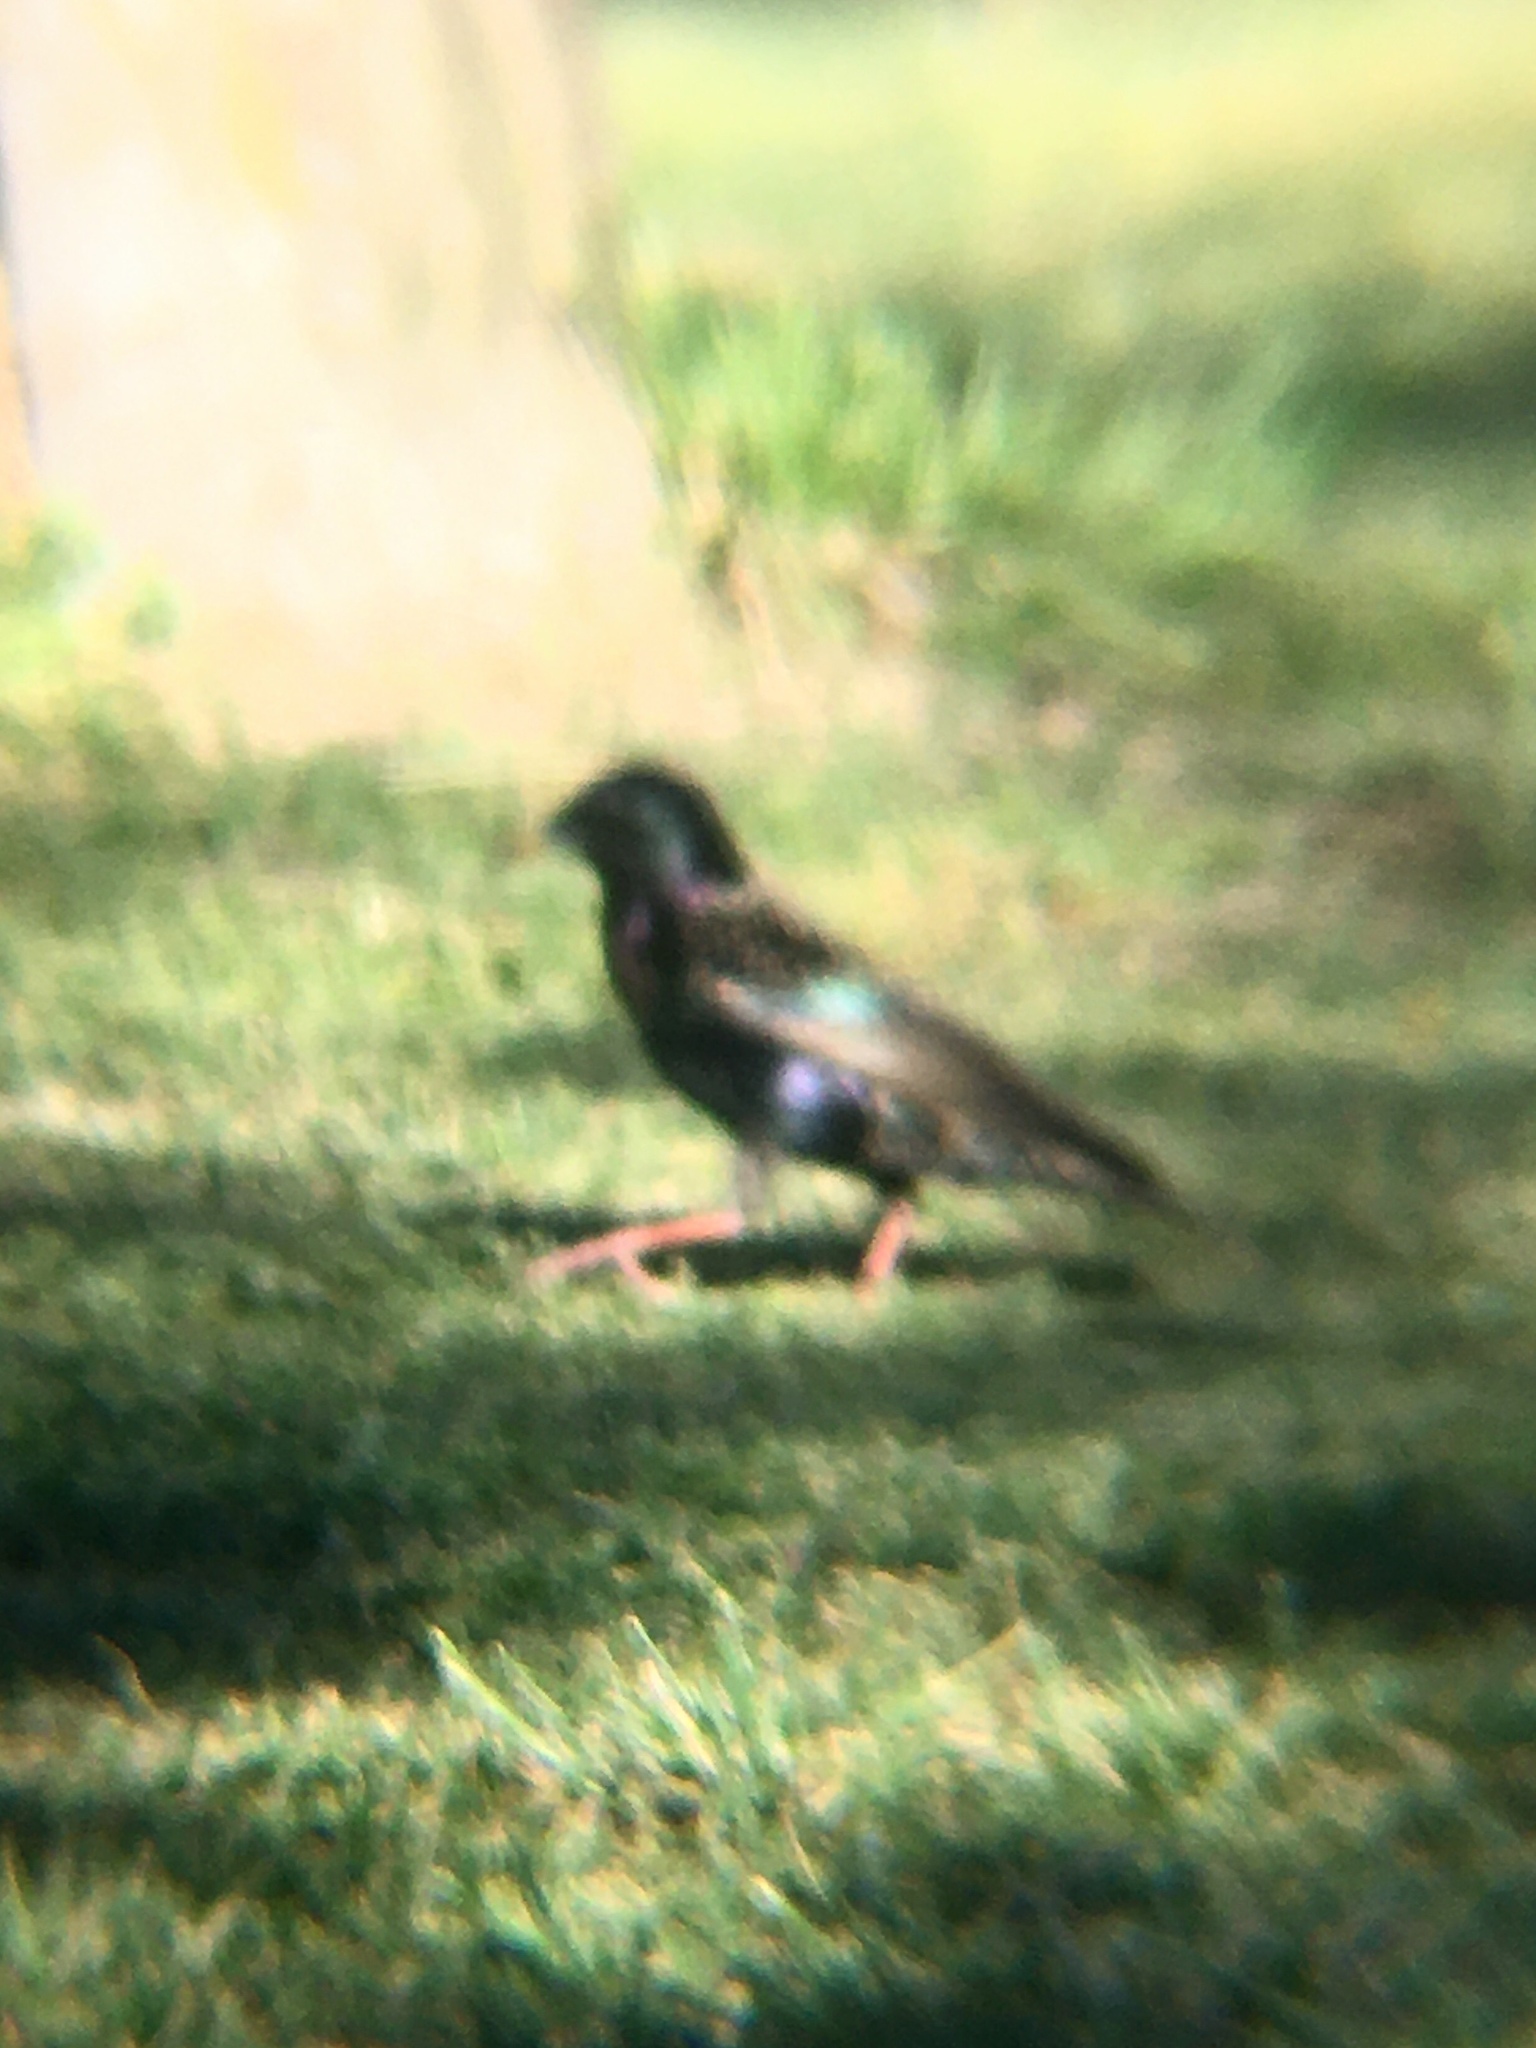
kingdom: Animalia
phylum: Chordata
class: Aves
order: Passeriformes
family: Sturnidae
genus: Sturnus
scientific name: Sturnus vulgaris
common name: Common starling
